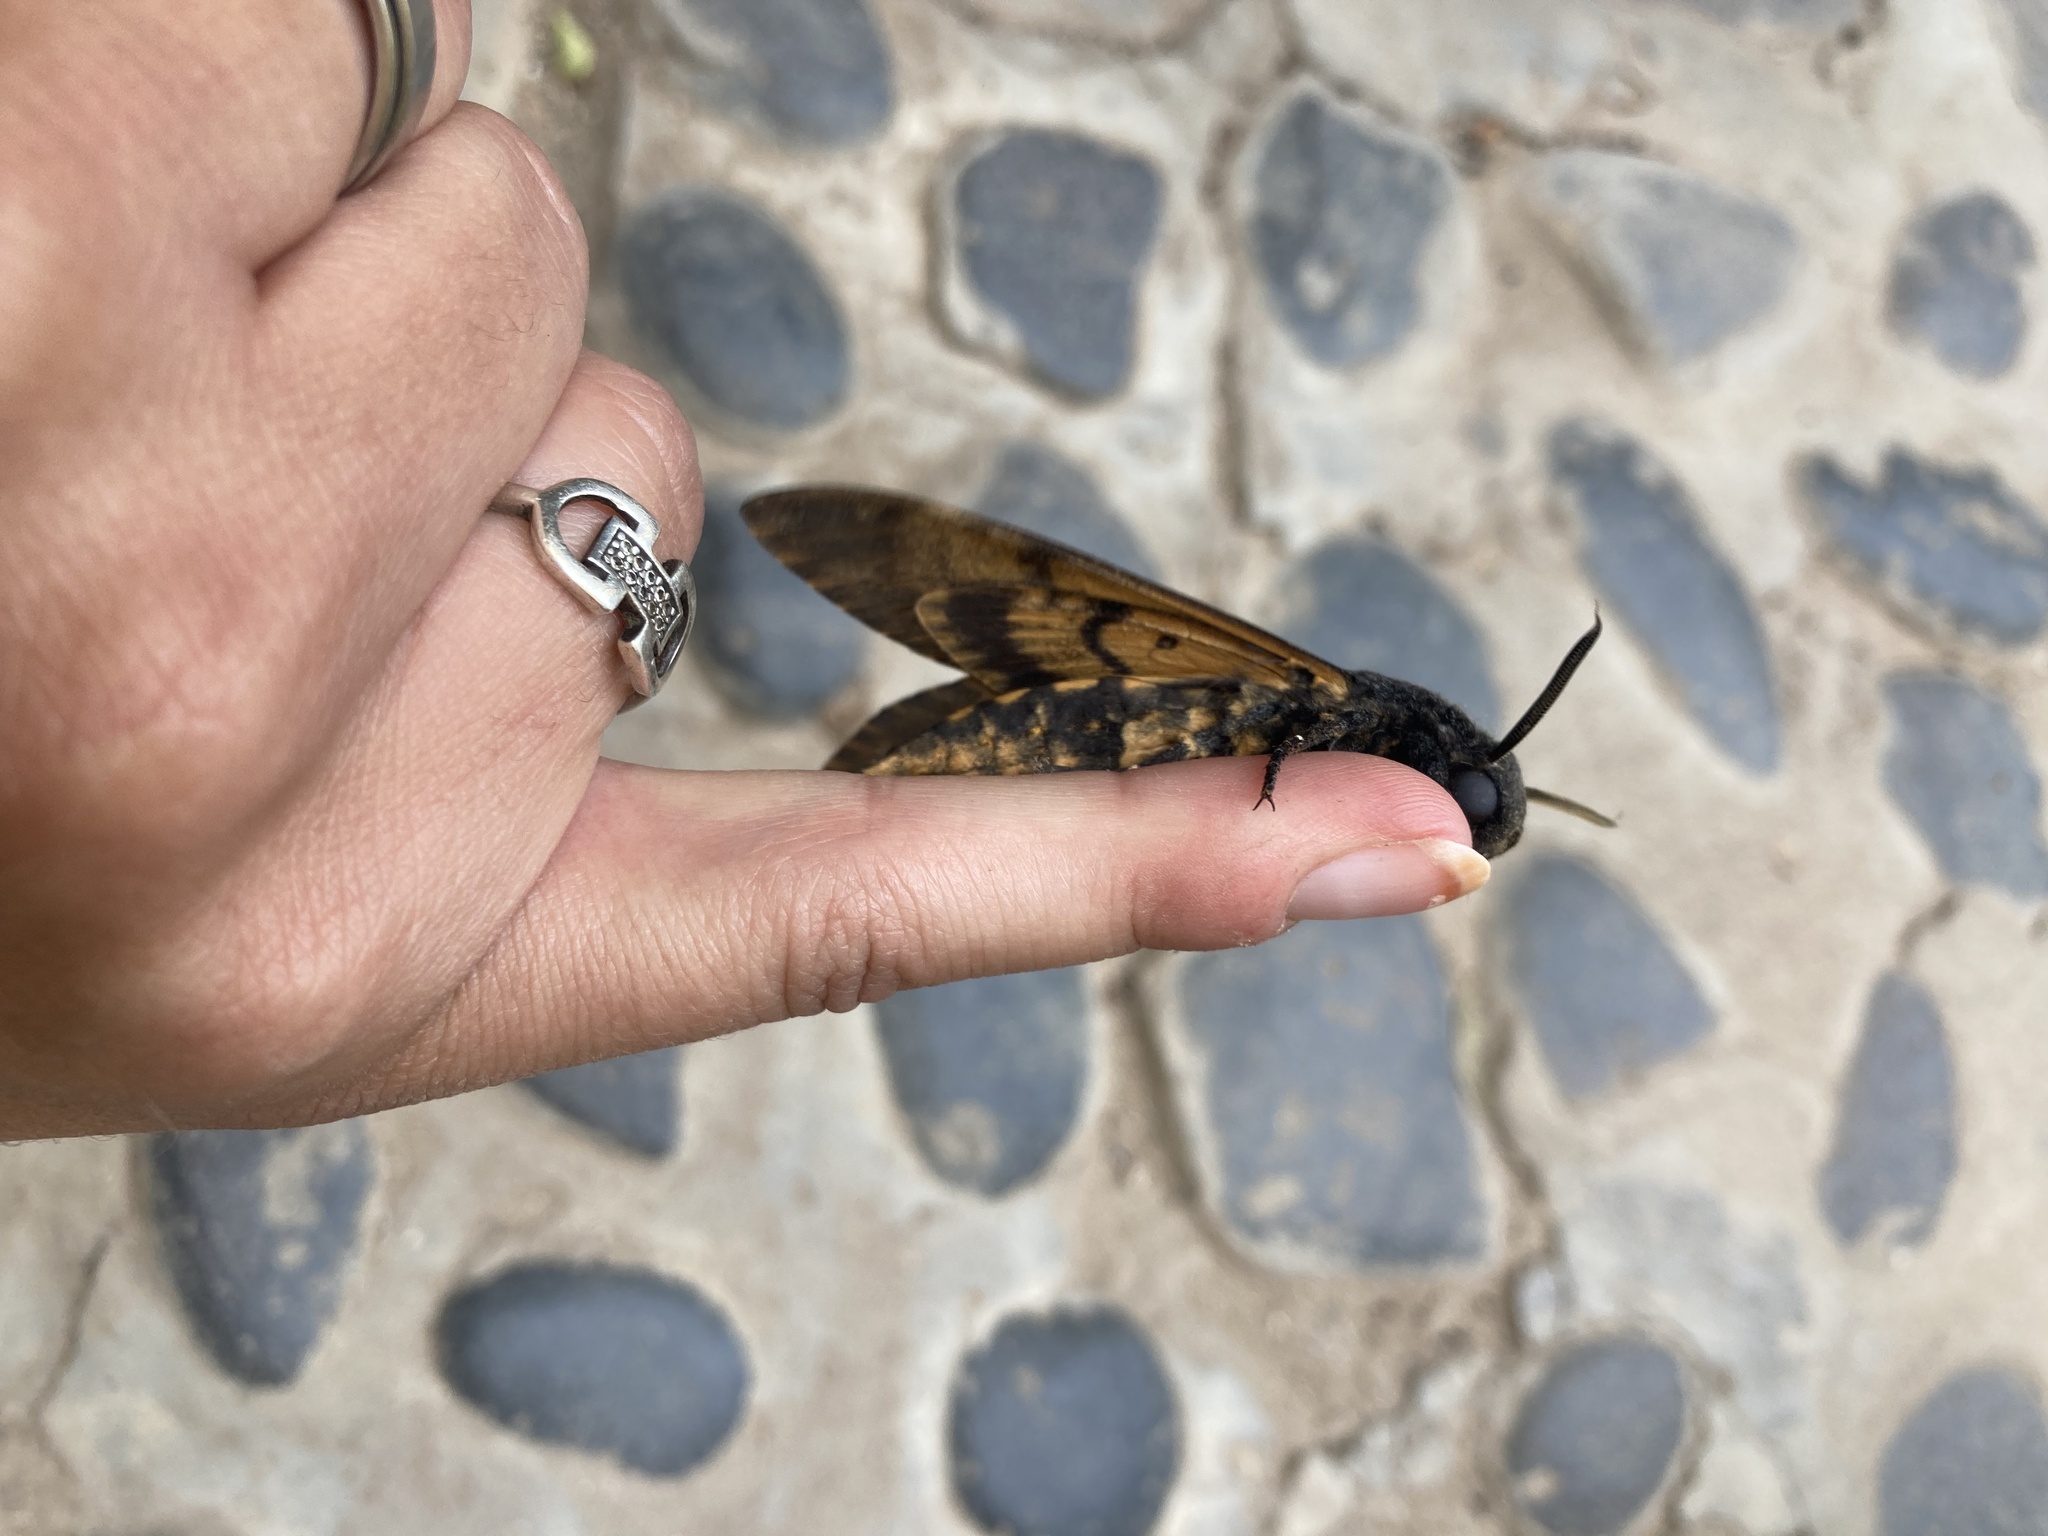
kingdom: Animalia
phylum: Arthropoda
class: Insecta
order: Lepidoptera
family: Sphingidae
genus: Acherontia
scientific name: Acherontia atropos
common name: Death's-head hawk moth
